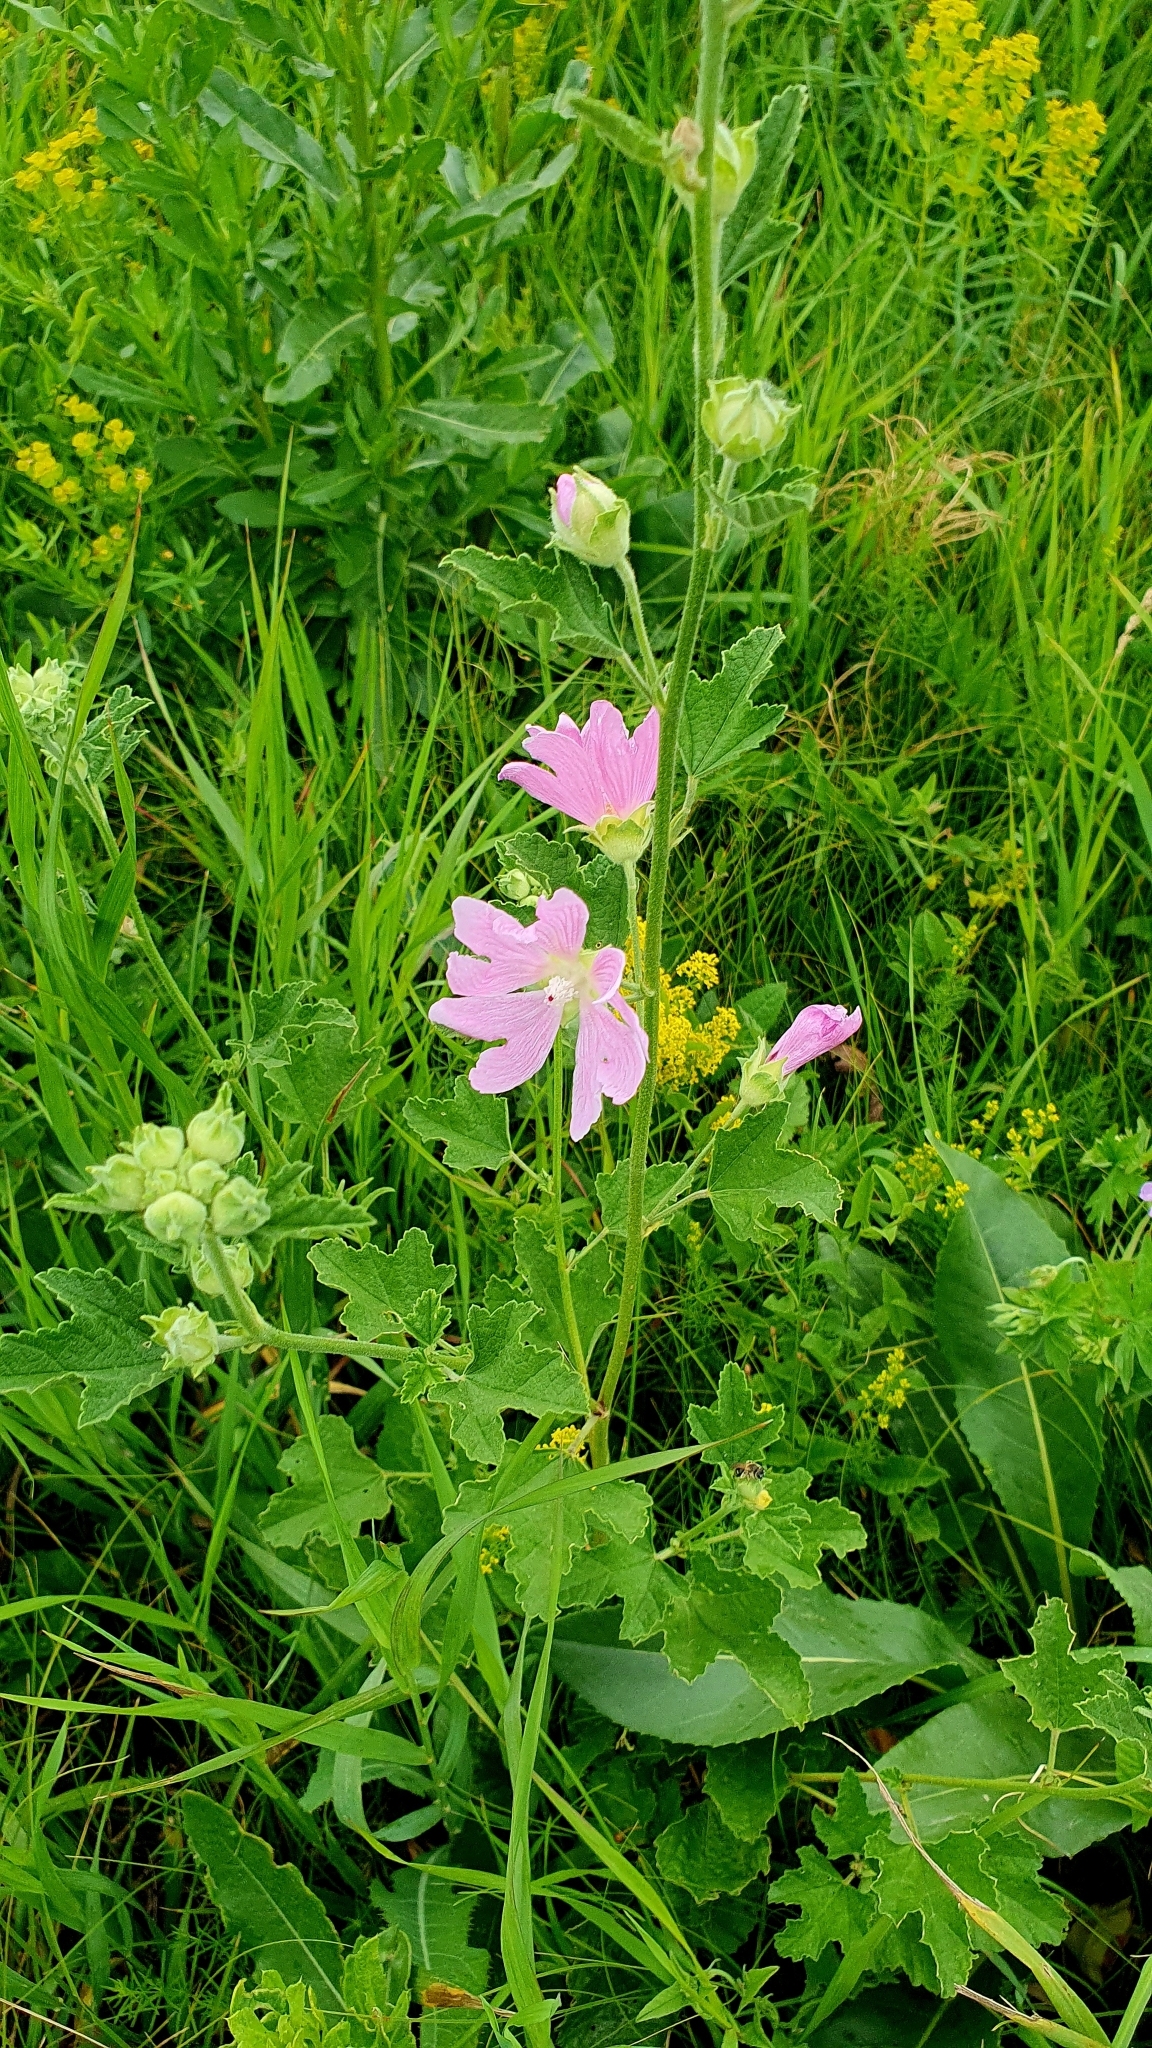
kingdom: Plantae
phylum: Tracheophyta
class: Magnoliopsida
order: Malvales
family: Malvaceae
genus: Malva
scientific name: Malva thuringiaca
